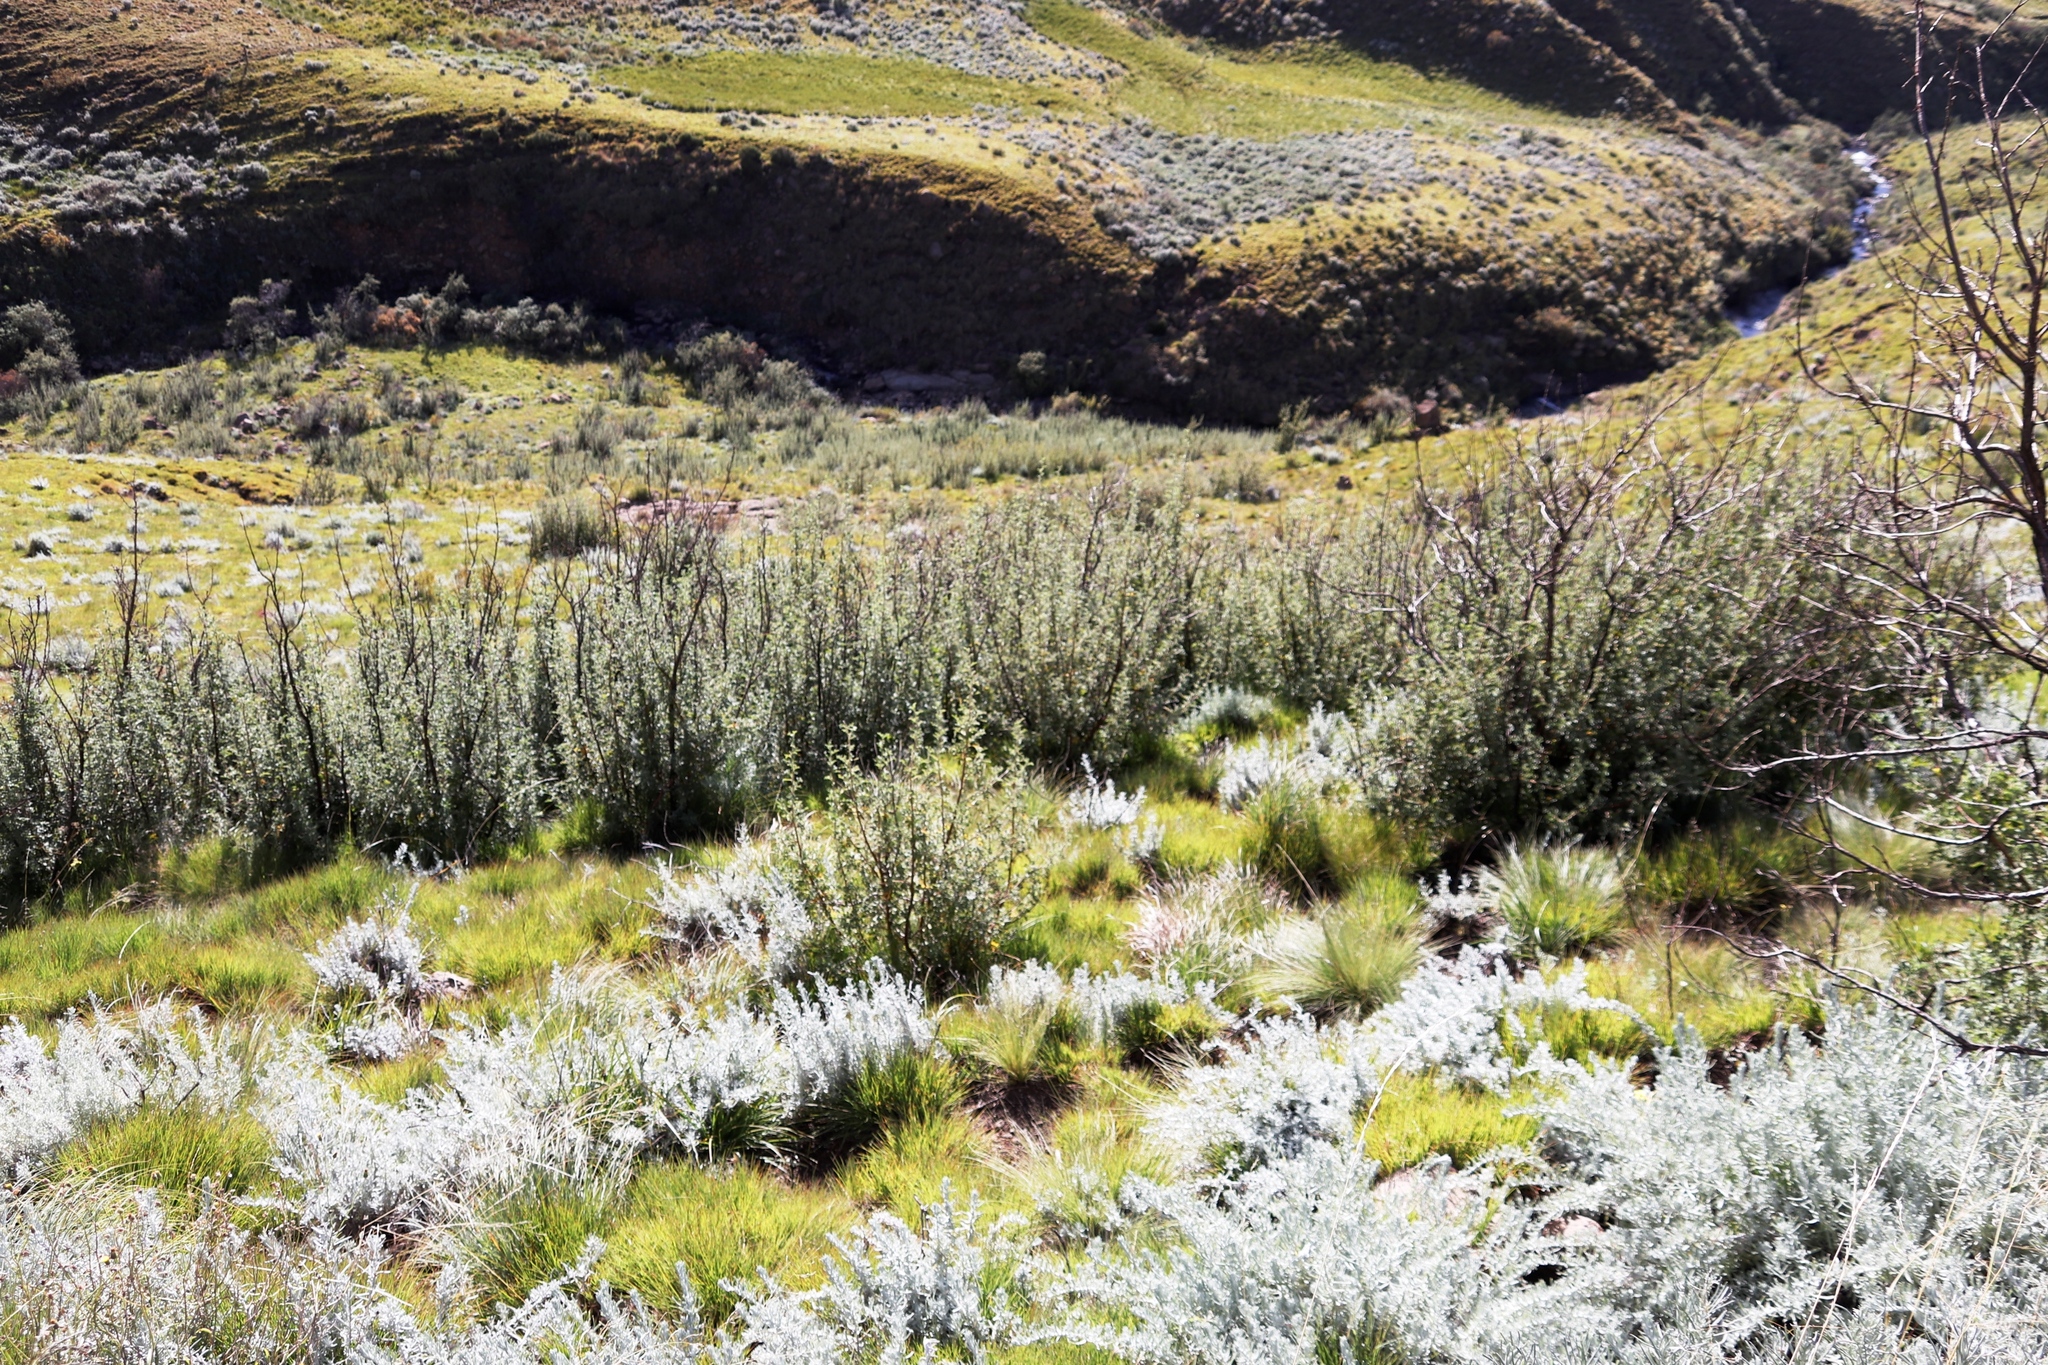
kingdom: Plantae
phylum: Tracheophyta
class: Magnoliopsida
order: Rosales
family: Rosaceae
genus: Leucosidea
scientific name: Leucosidea sericea
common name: Oldwood
